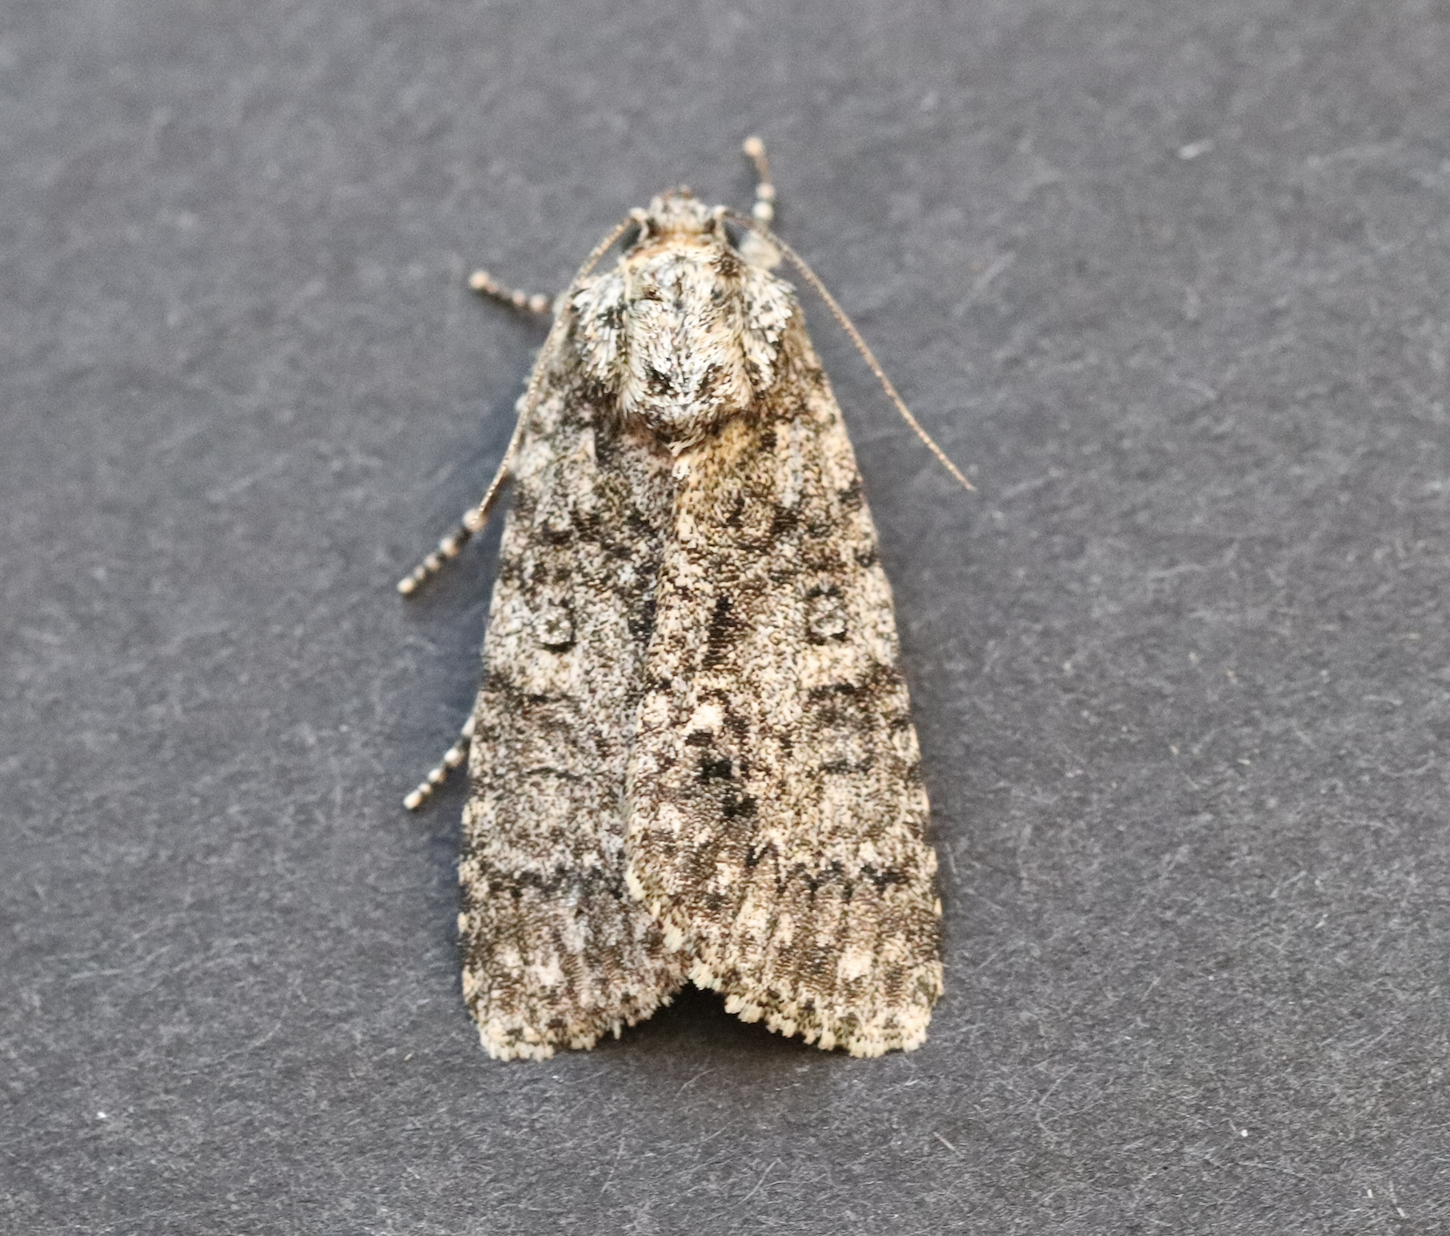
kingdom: Animalia
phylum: Arthropoda
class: Insecta
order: Lepidoptera
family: Noctuidae
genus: Acronicta
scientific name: Acronicta rumicis
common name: Knot grass
